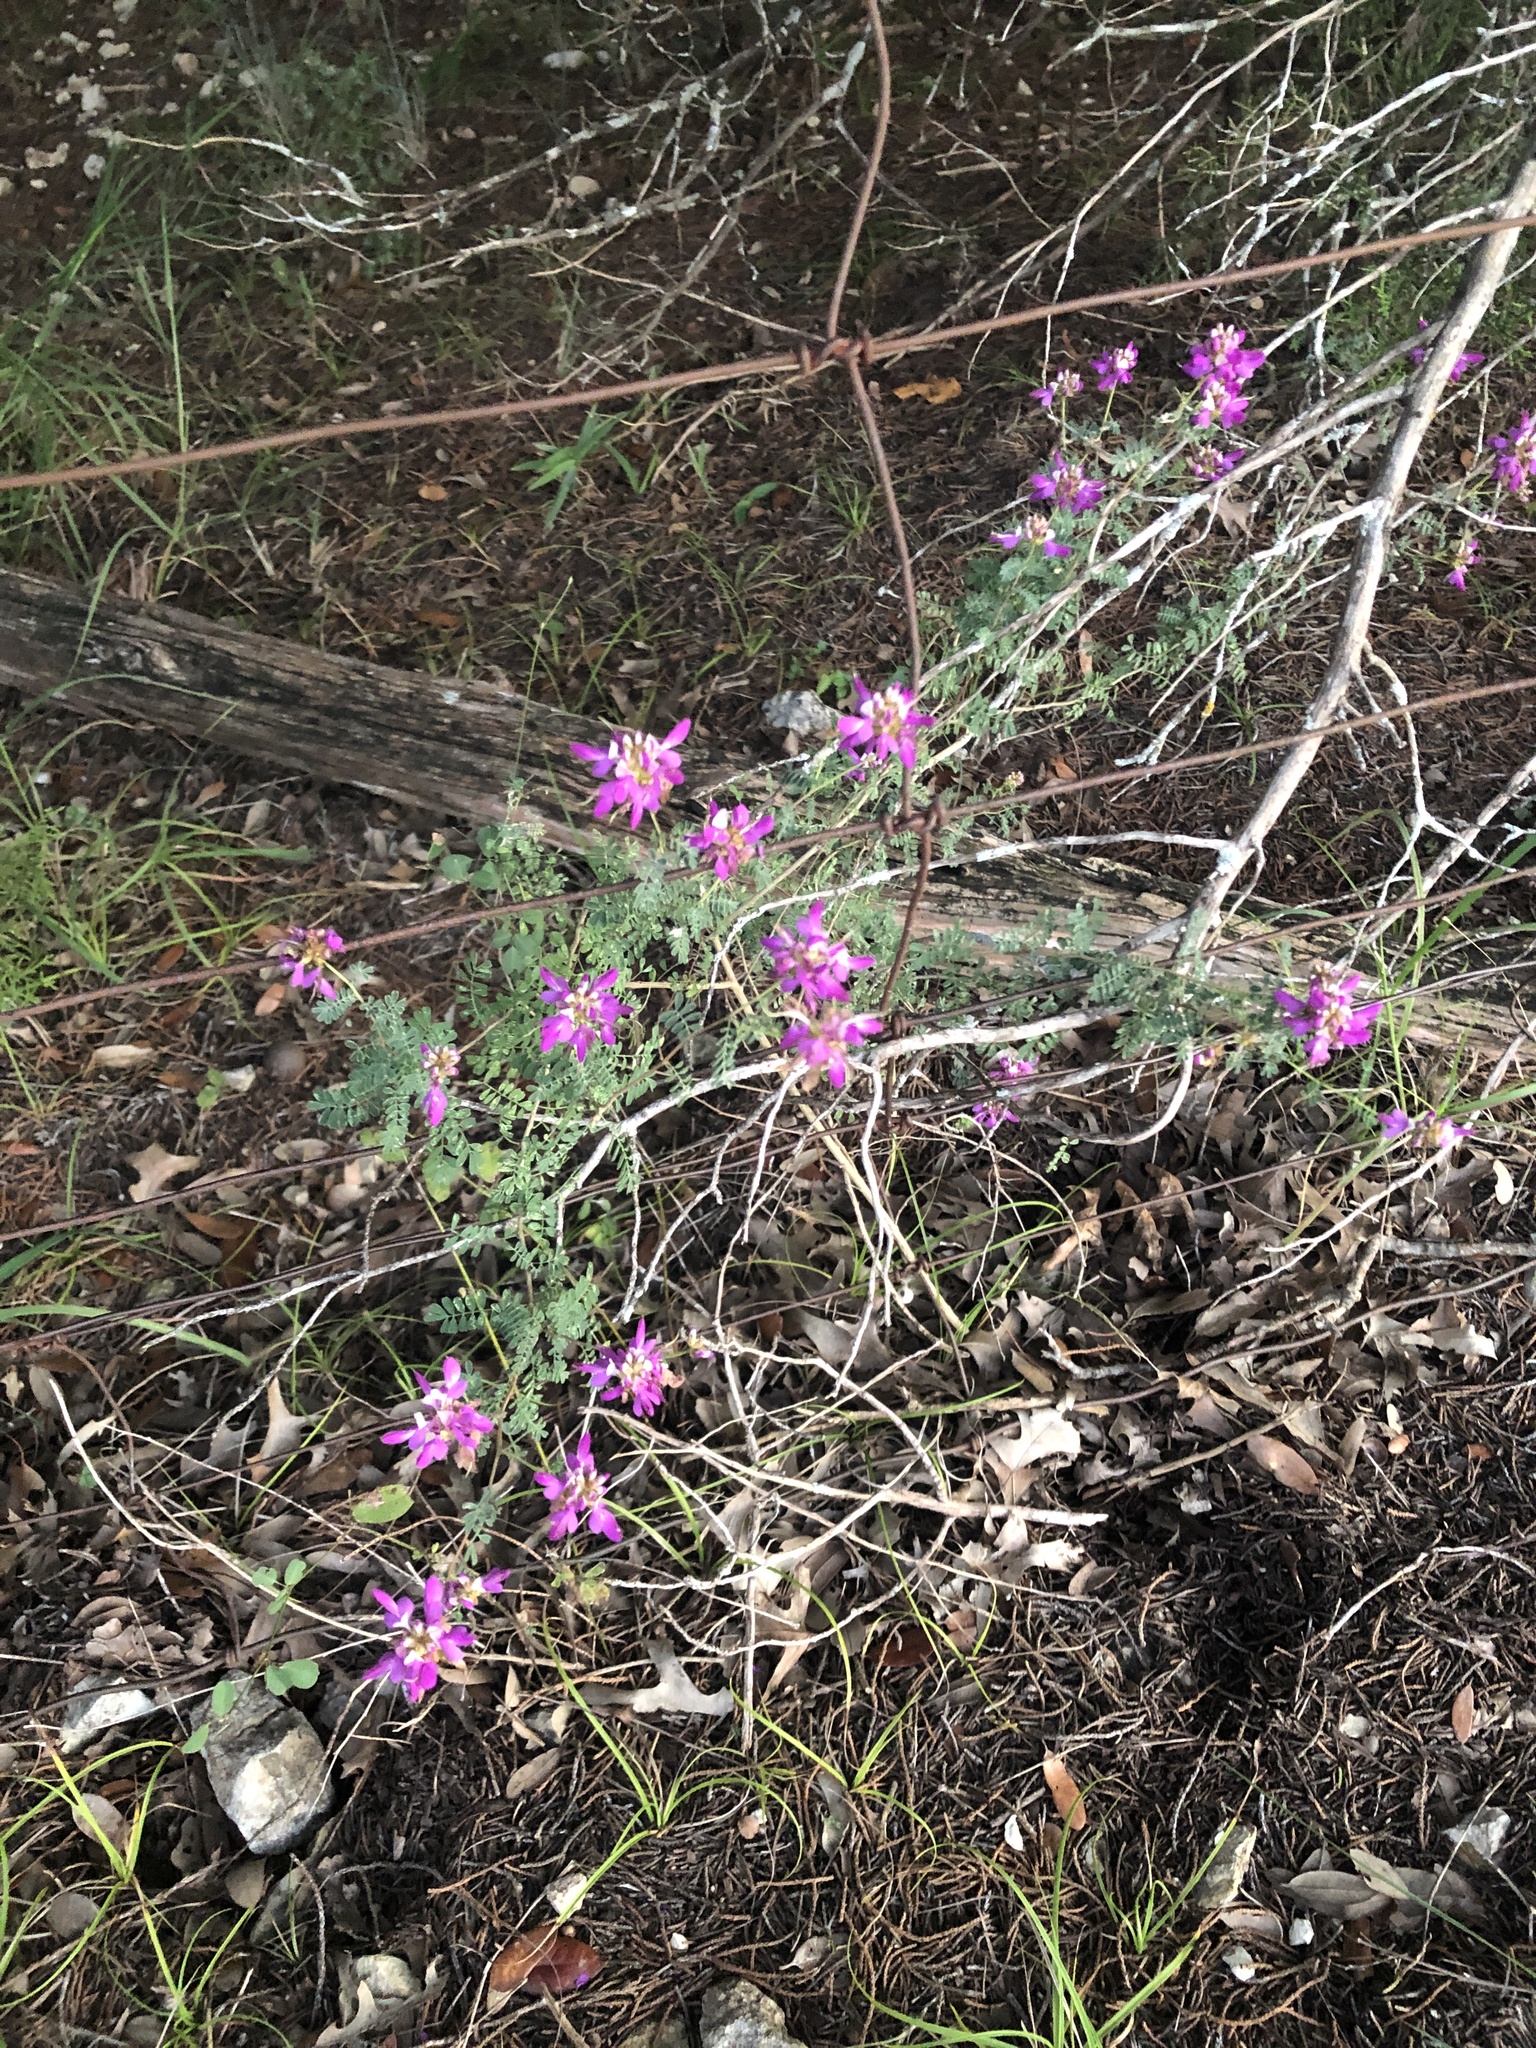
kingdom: Plantae
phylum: Tracheophyta
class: Magnoliopsida
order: Fabales
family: Fabaceae
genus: Dalea
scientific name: Dalea frutescens
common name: Black dalea
